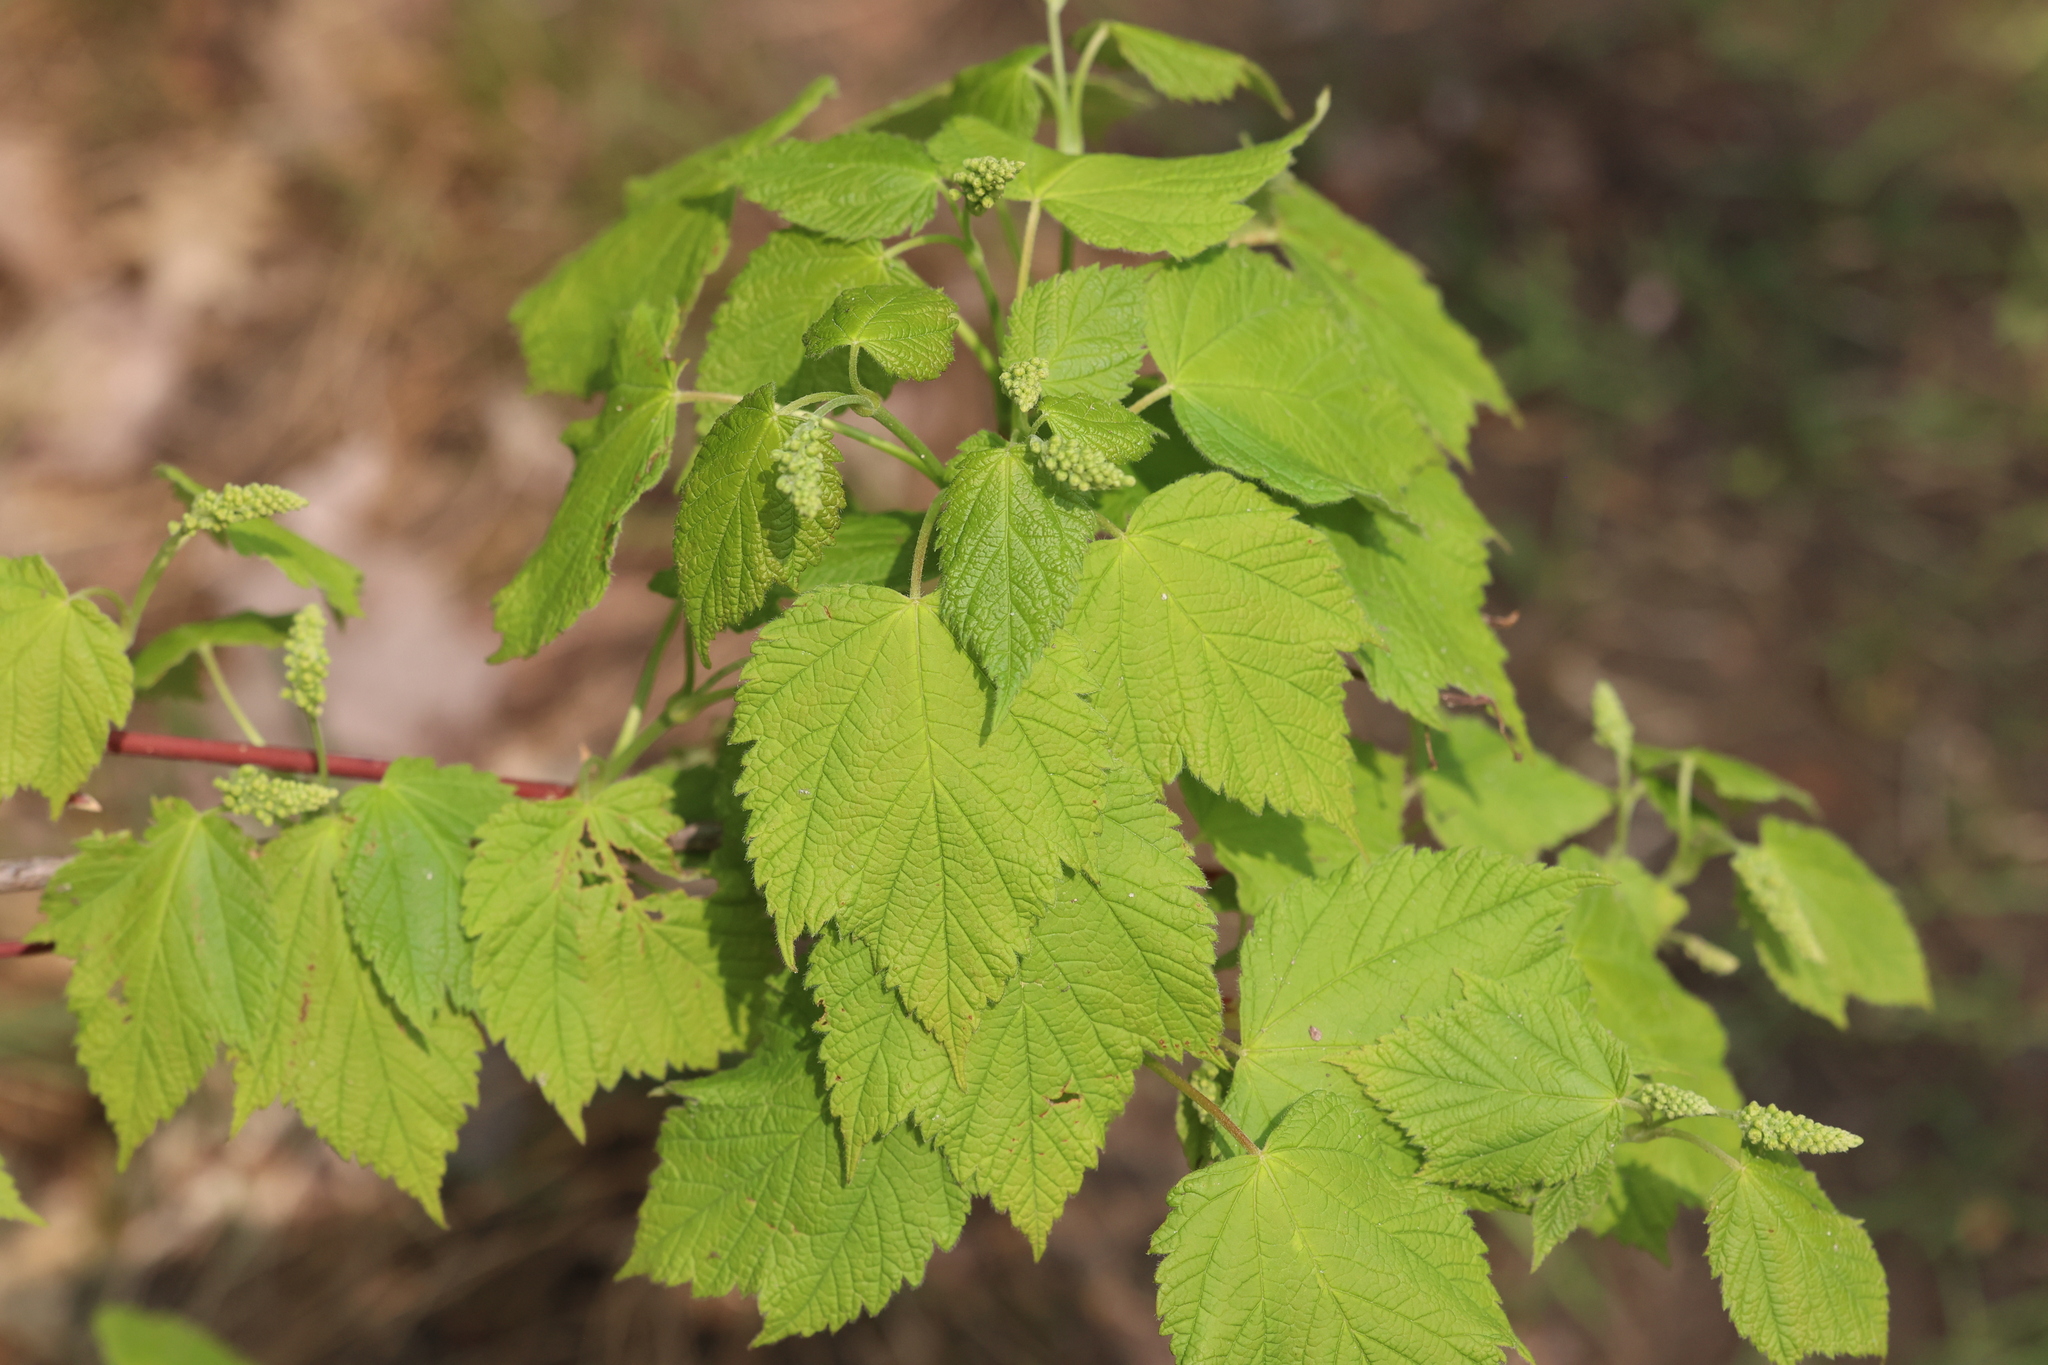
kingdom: Plantae
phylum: Tracheophyta
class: Magnoliopsida
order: Sapindales
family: Sapindaceae
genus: Acer
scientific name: Acer spicatum
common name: Mountain maple
